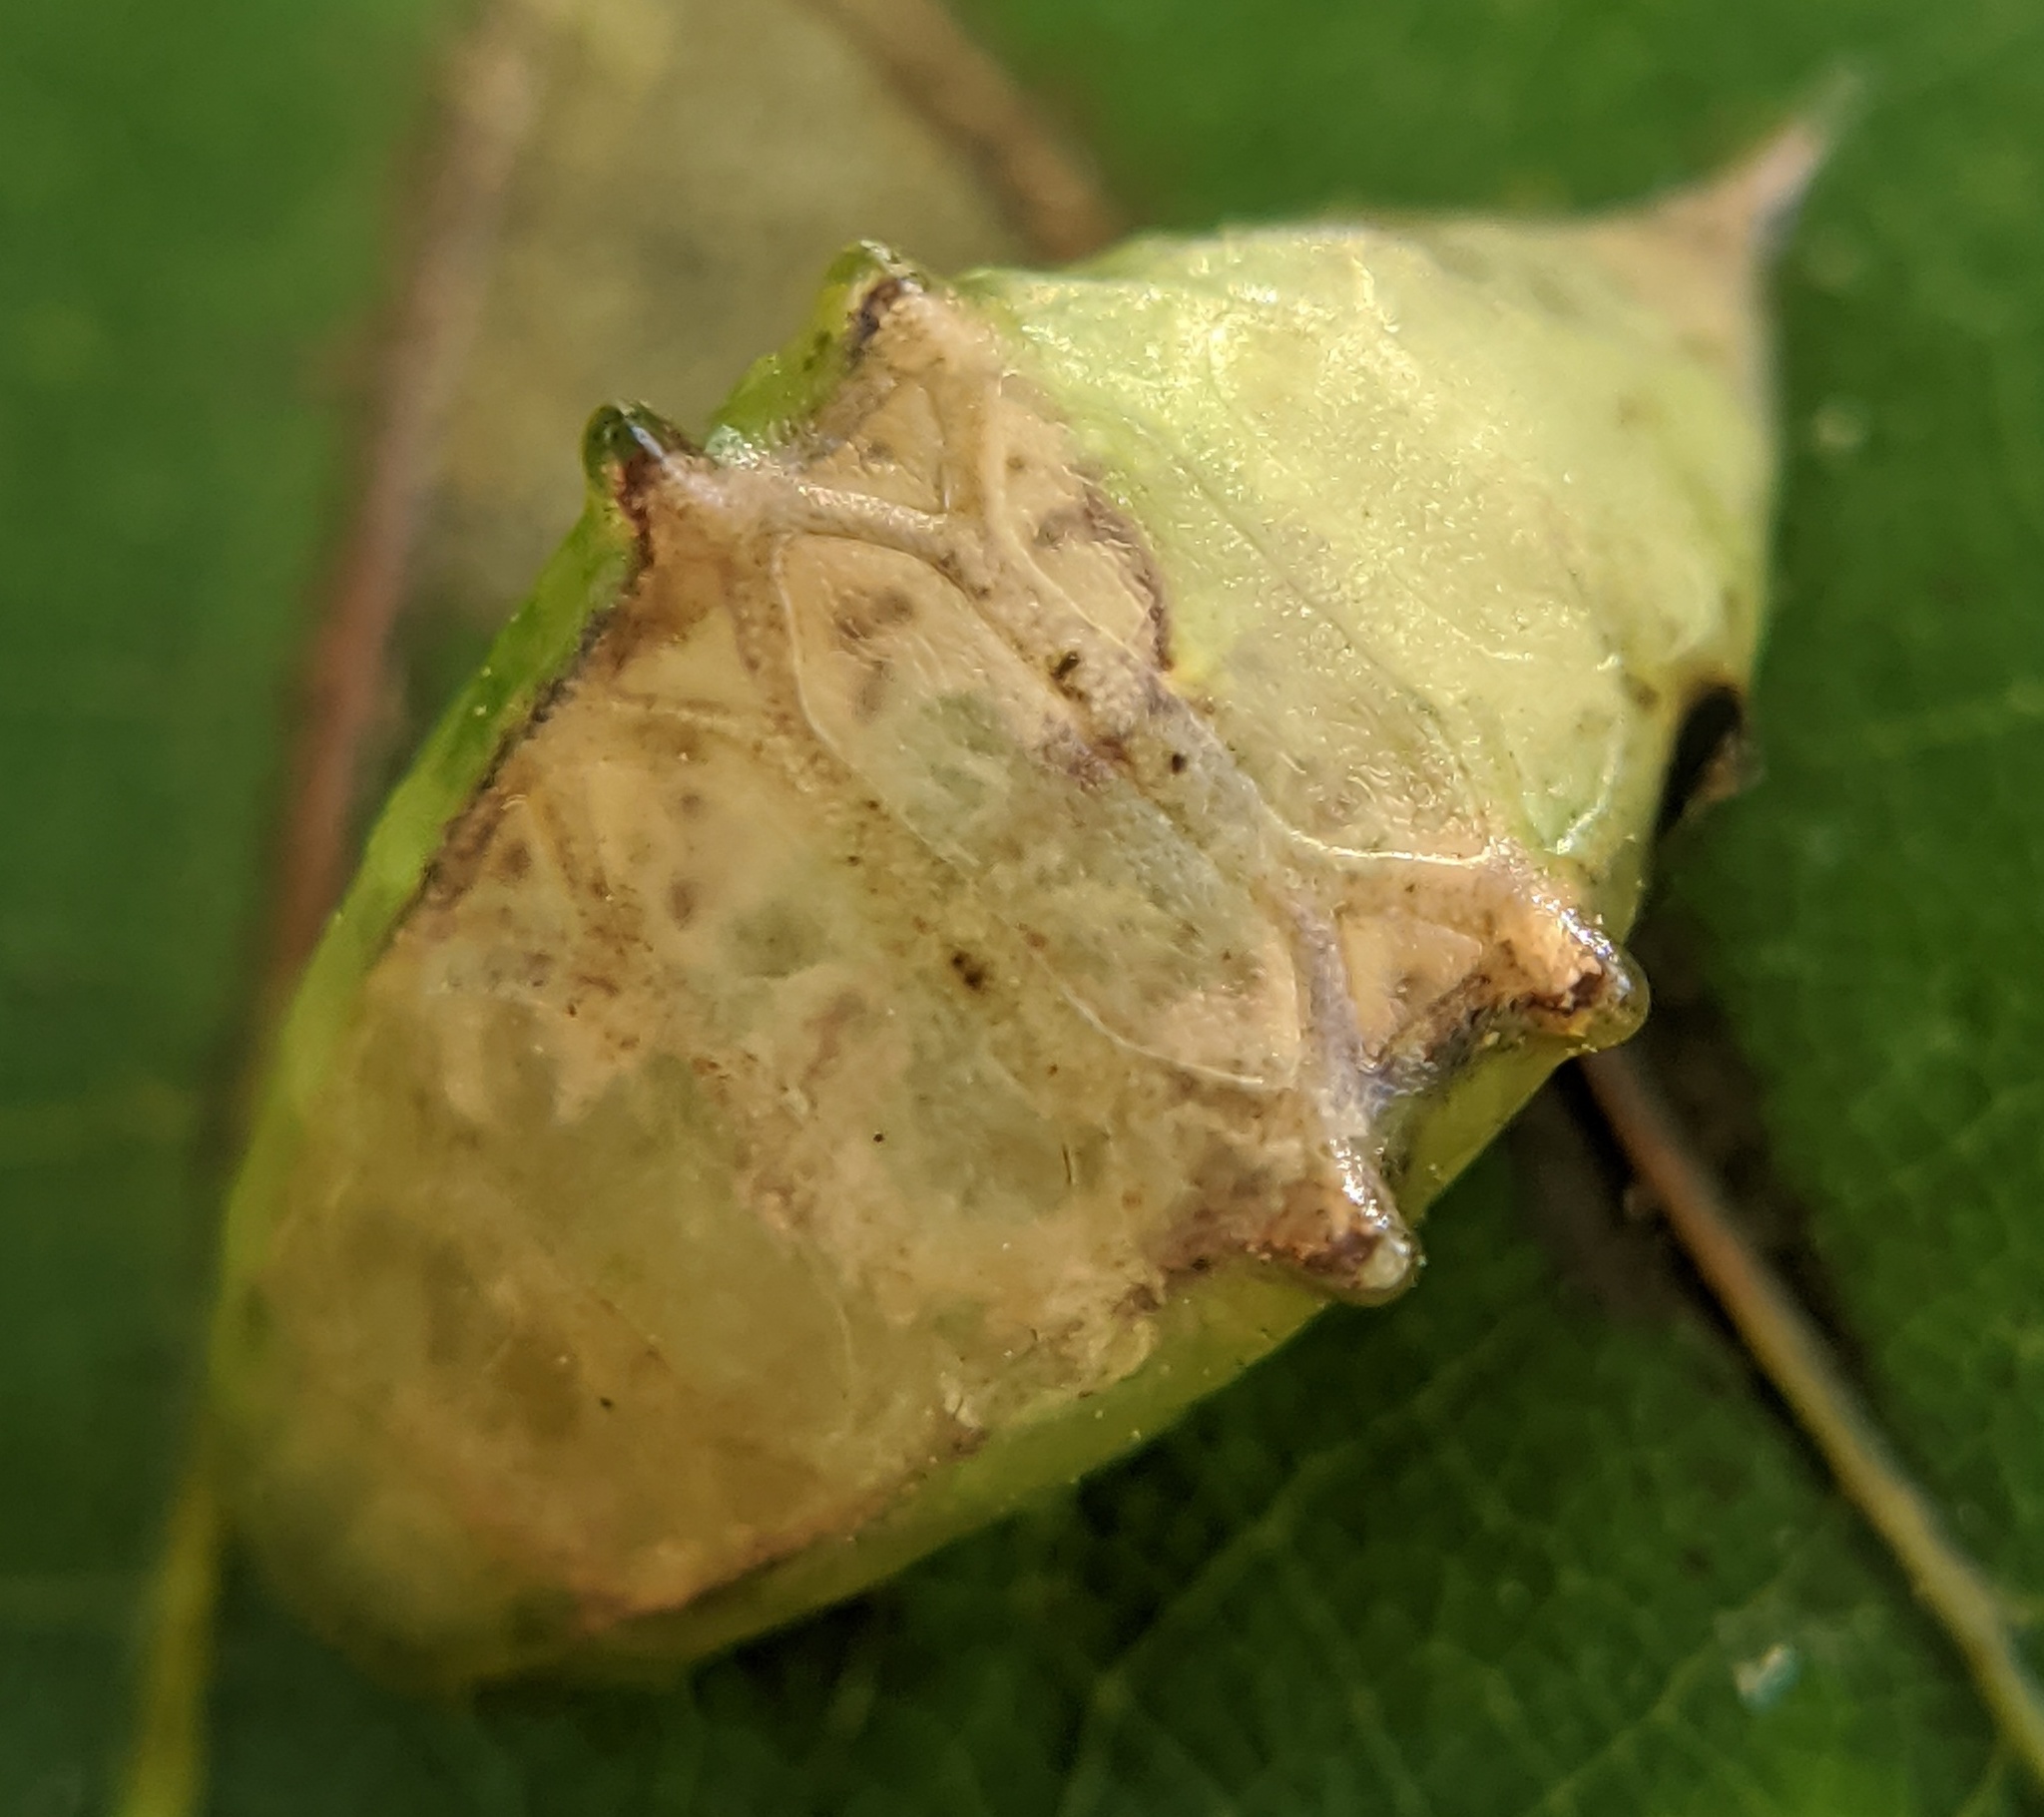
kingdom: Animalia
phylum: Arthropoda
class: Insecta
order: Lepidoptera
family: Limacodidae
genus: Prolimacodes
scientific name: Prolimacodes badia
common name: Skiff moth
